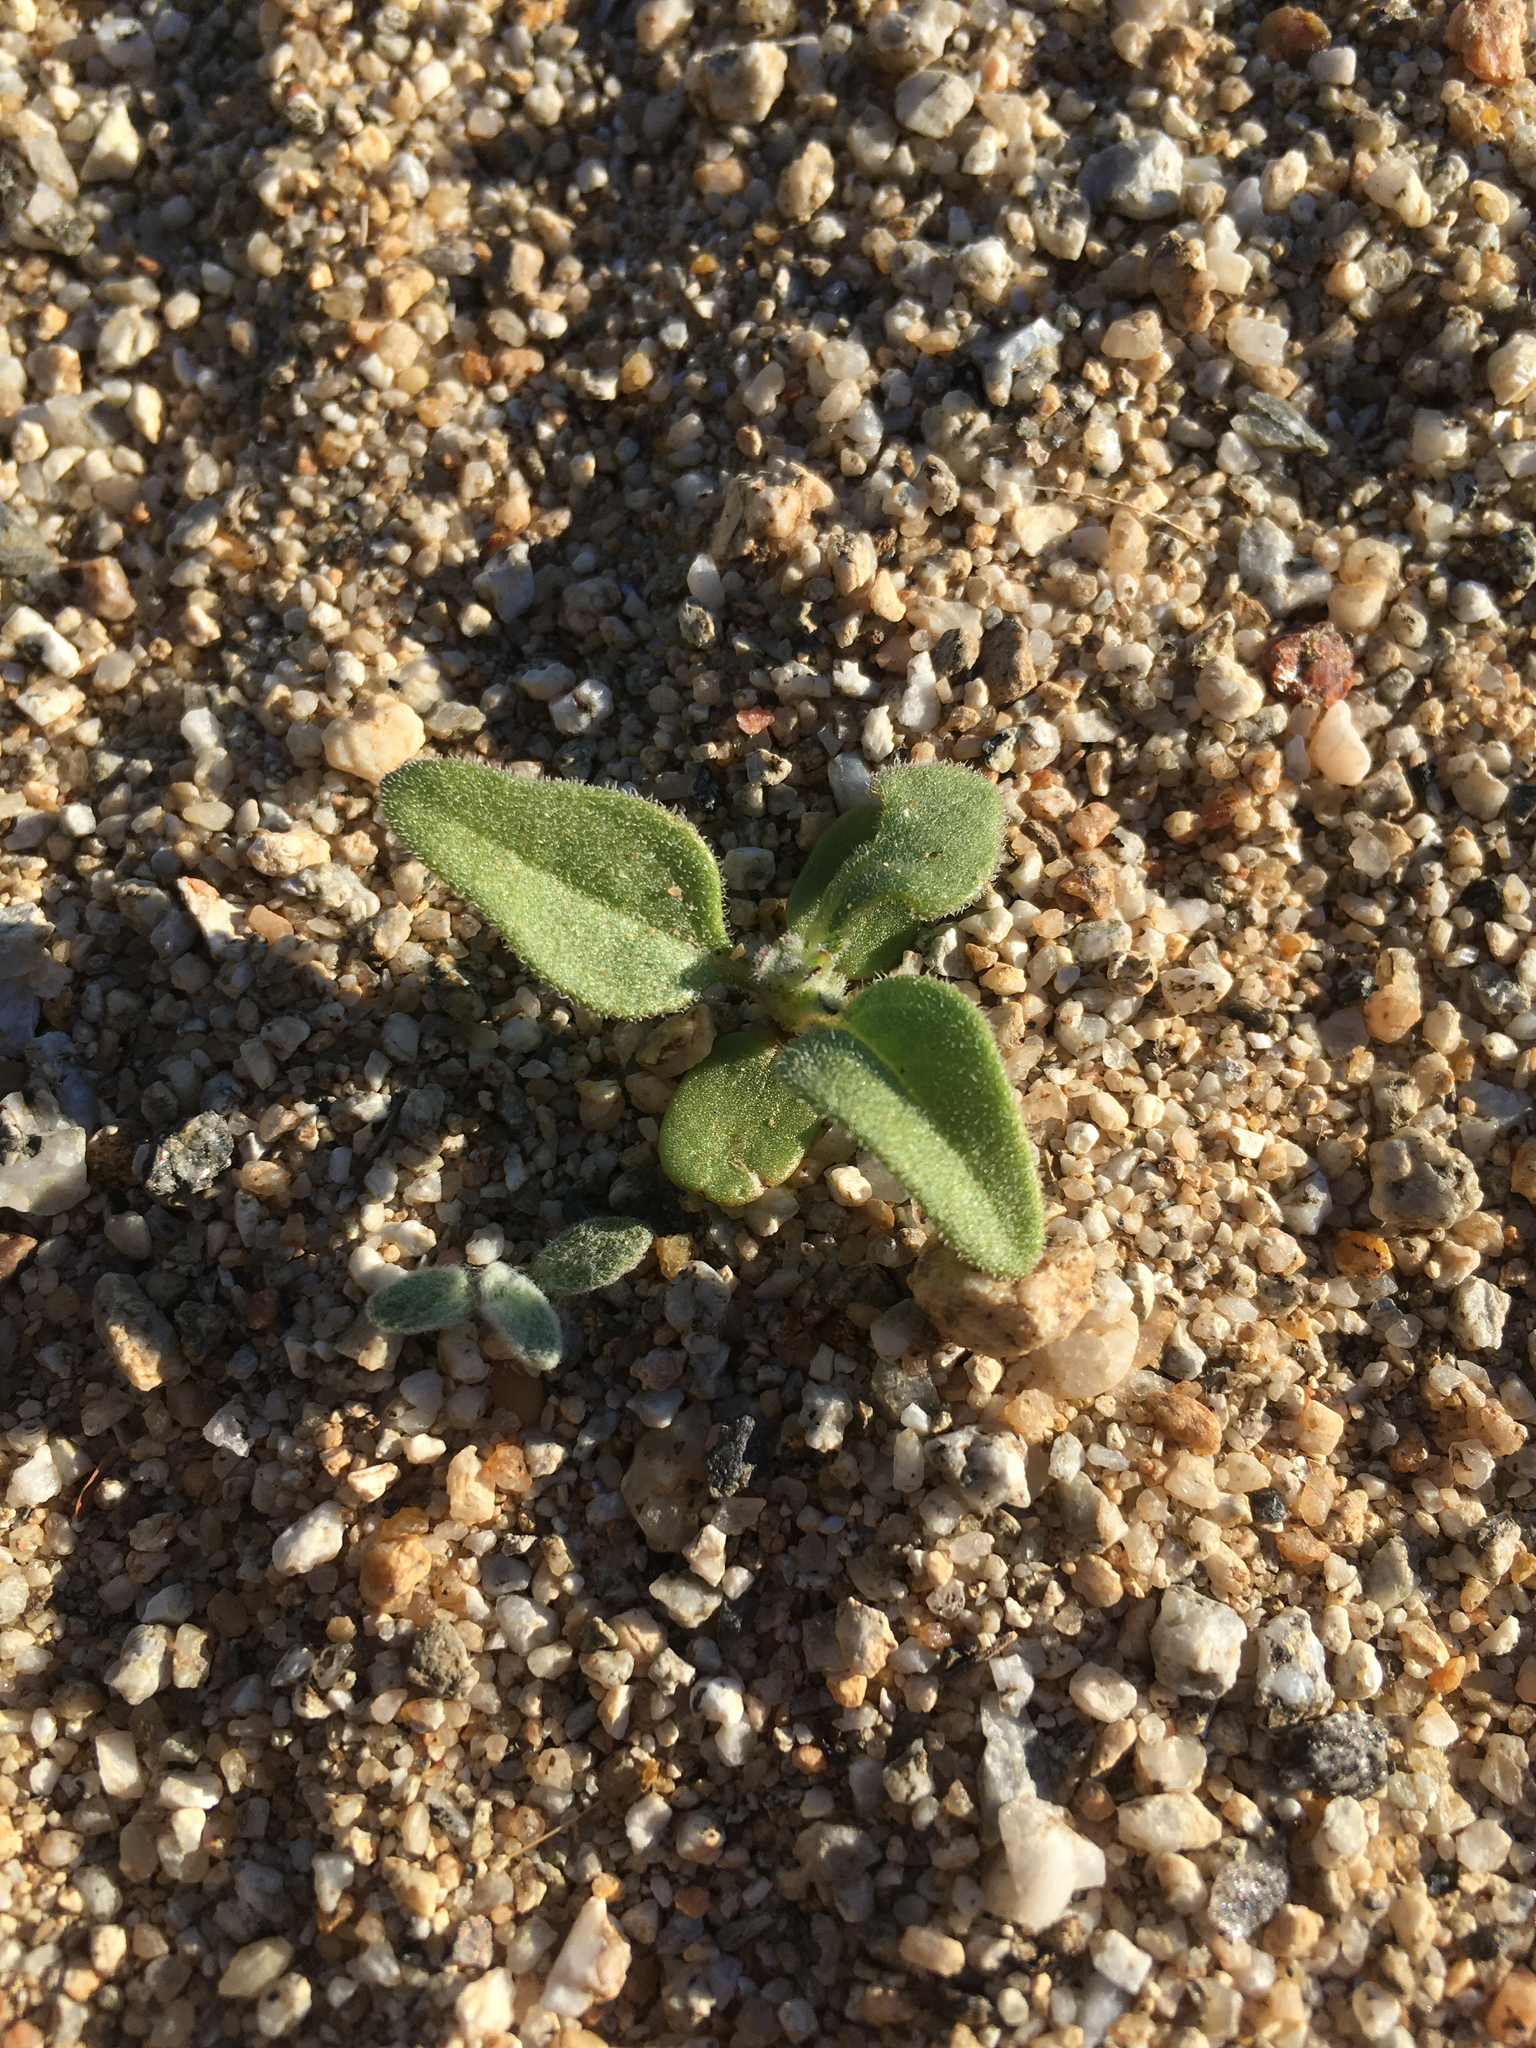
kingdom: Plantae
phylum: Tracheophyta
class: Magnoliopsida
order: Asterales
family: Asteraceae
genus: Encelia
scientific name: Encelia farinosa
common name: Brittlebush
